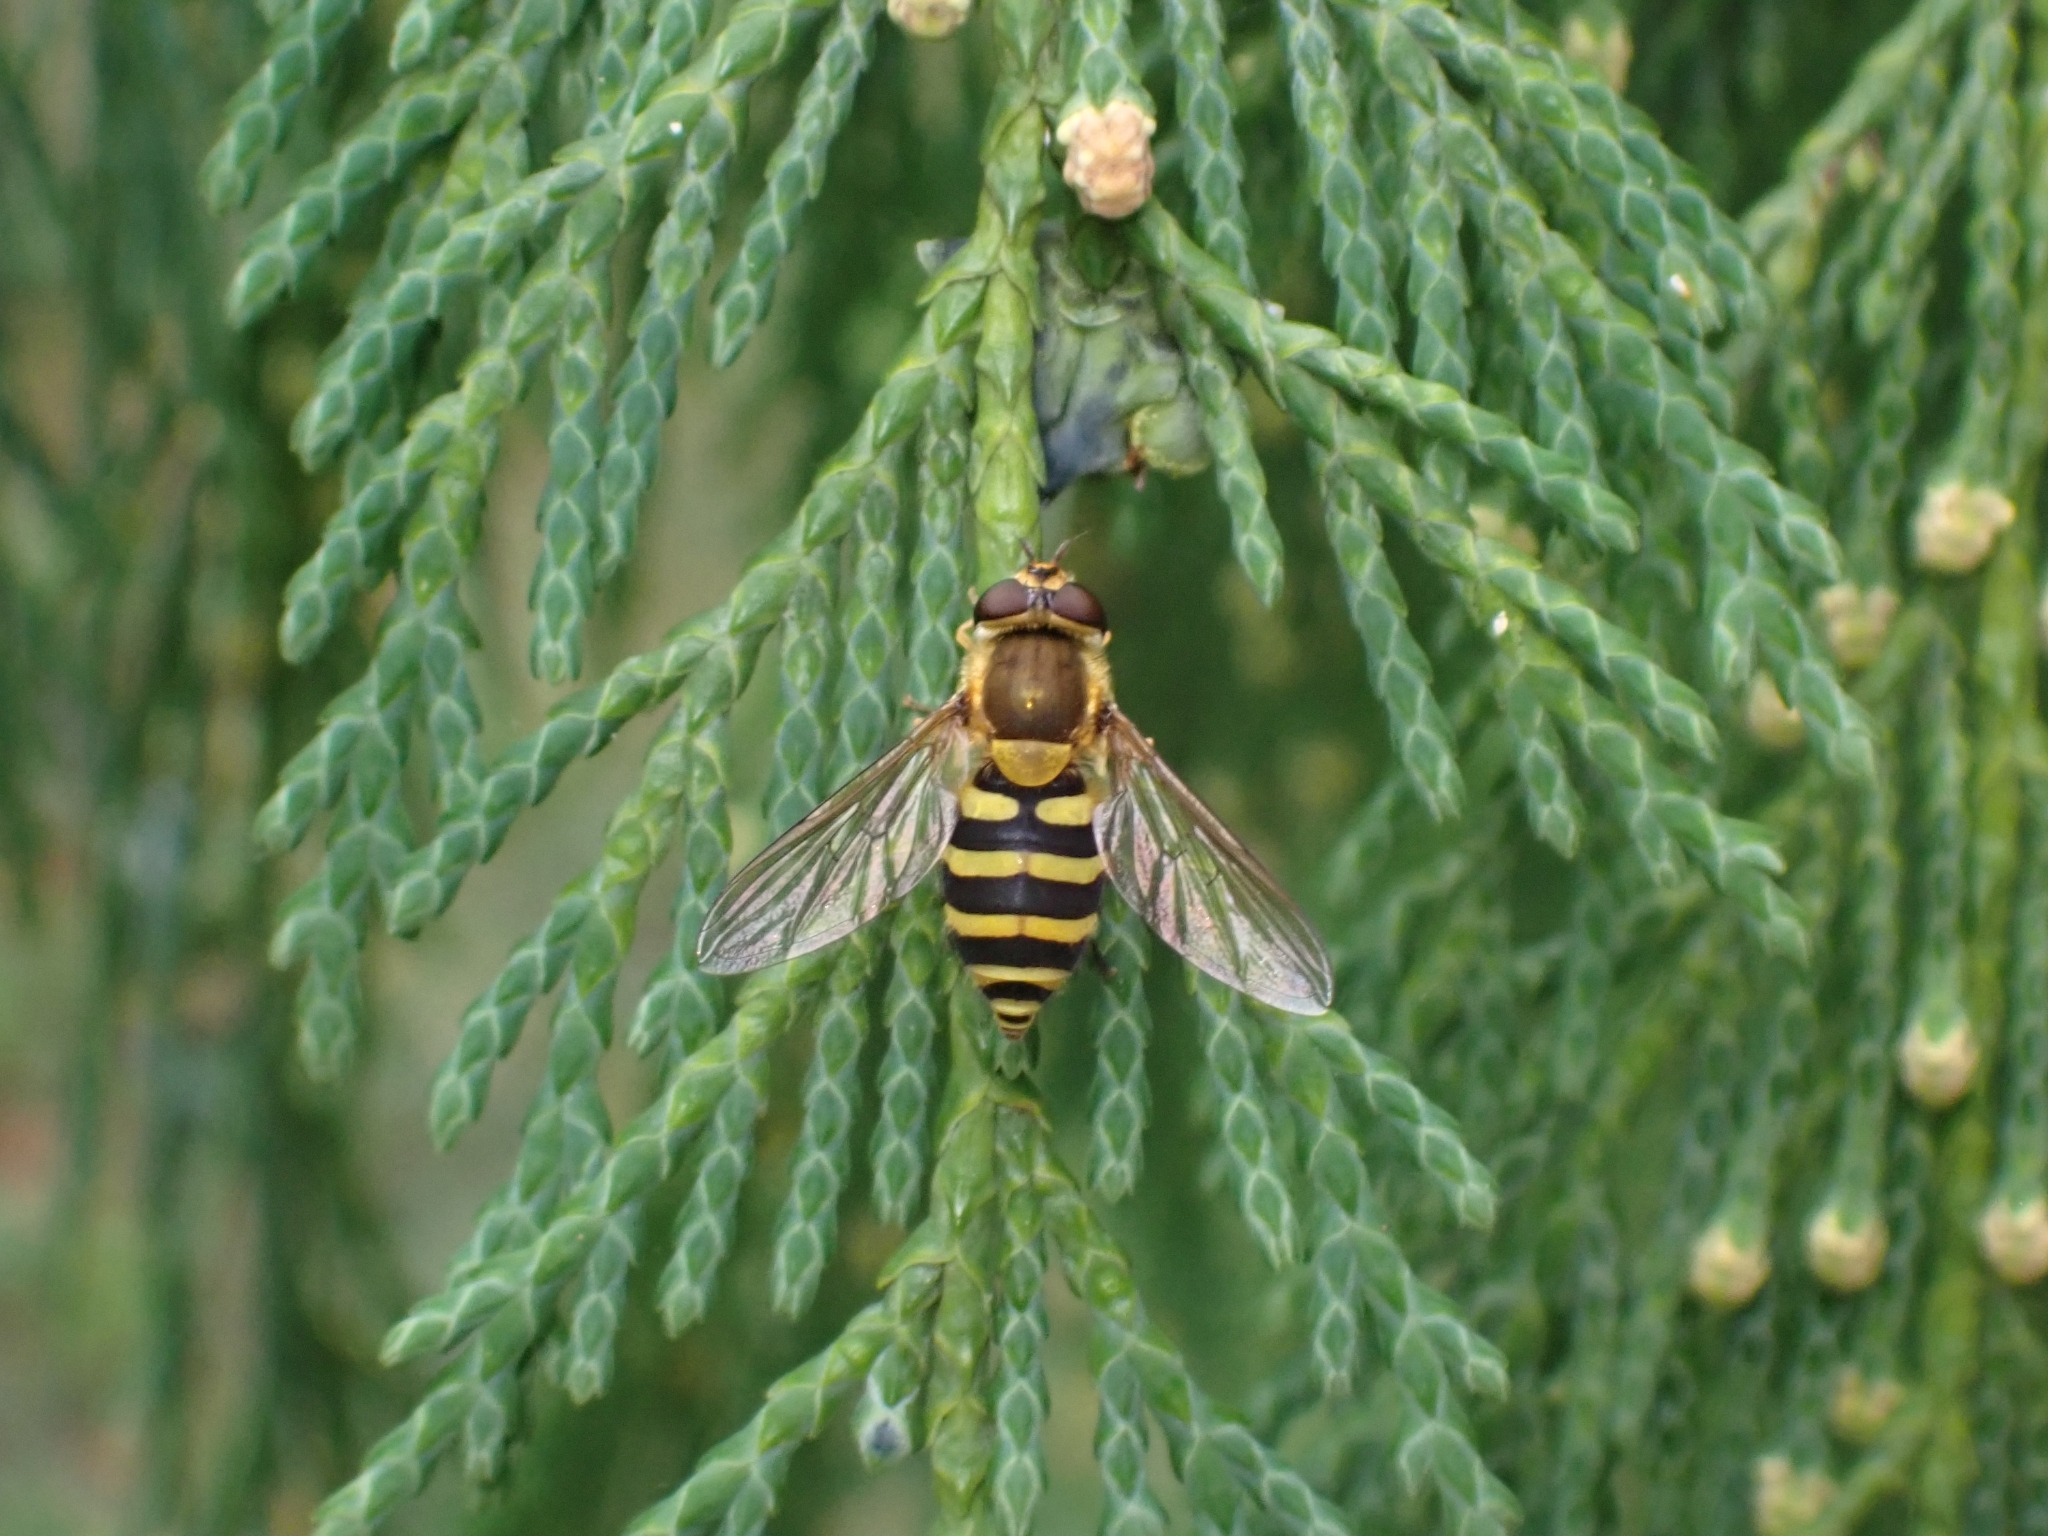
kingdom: Animalia
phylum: Arthropoda
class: Insecta
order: Diptera
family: Syrphidae
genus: Syrphus
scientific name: Syrphus
